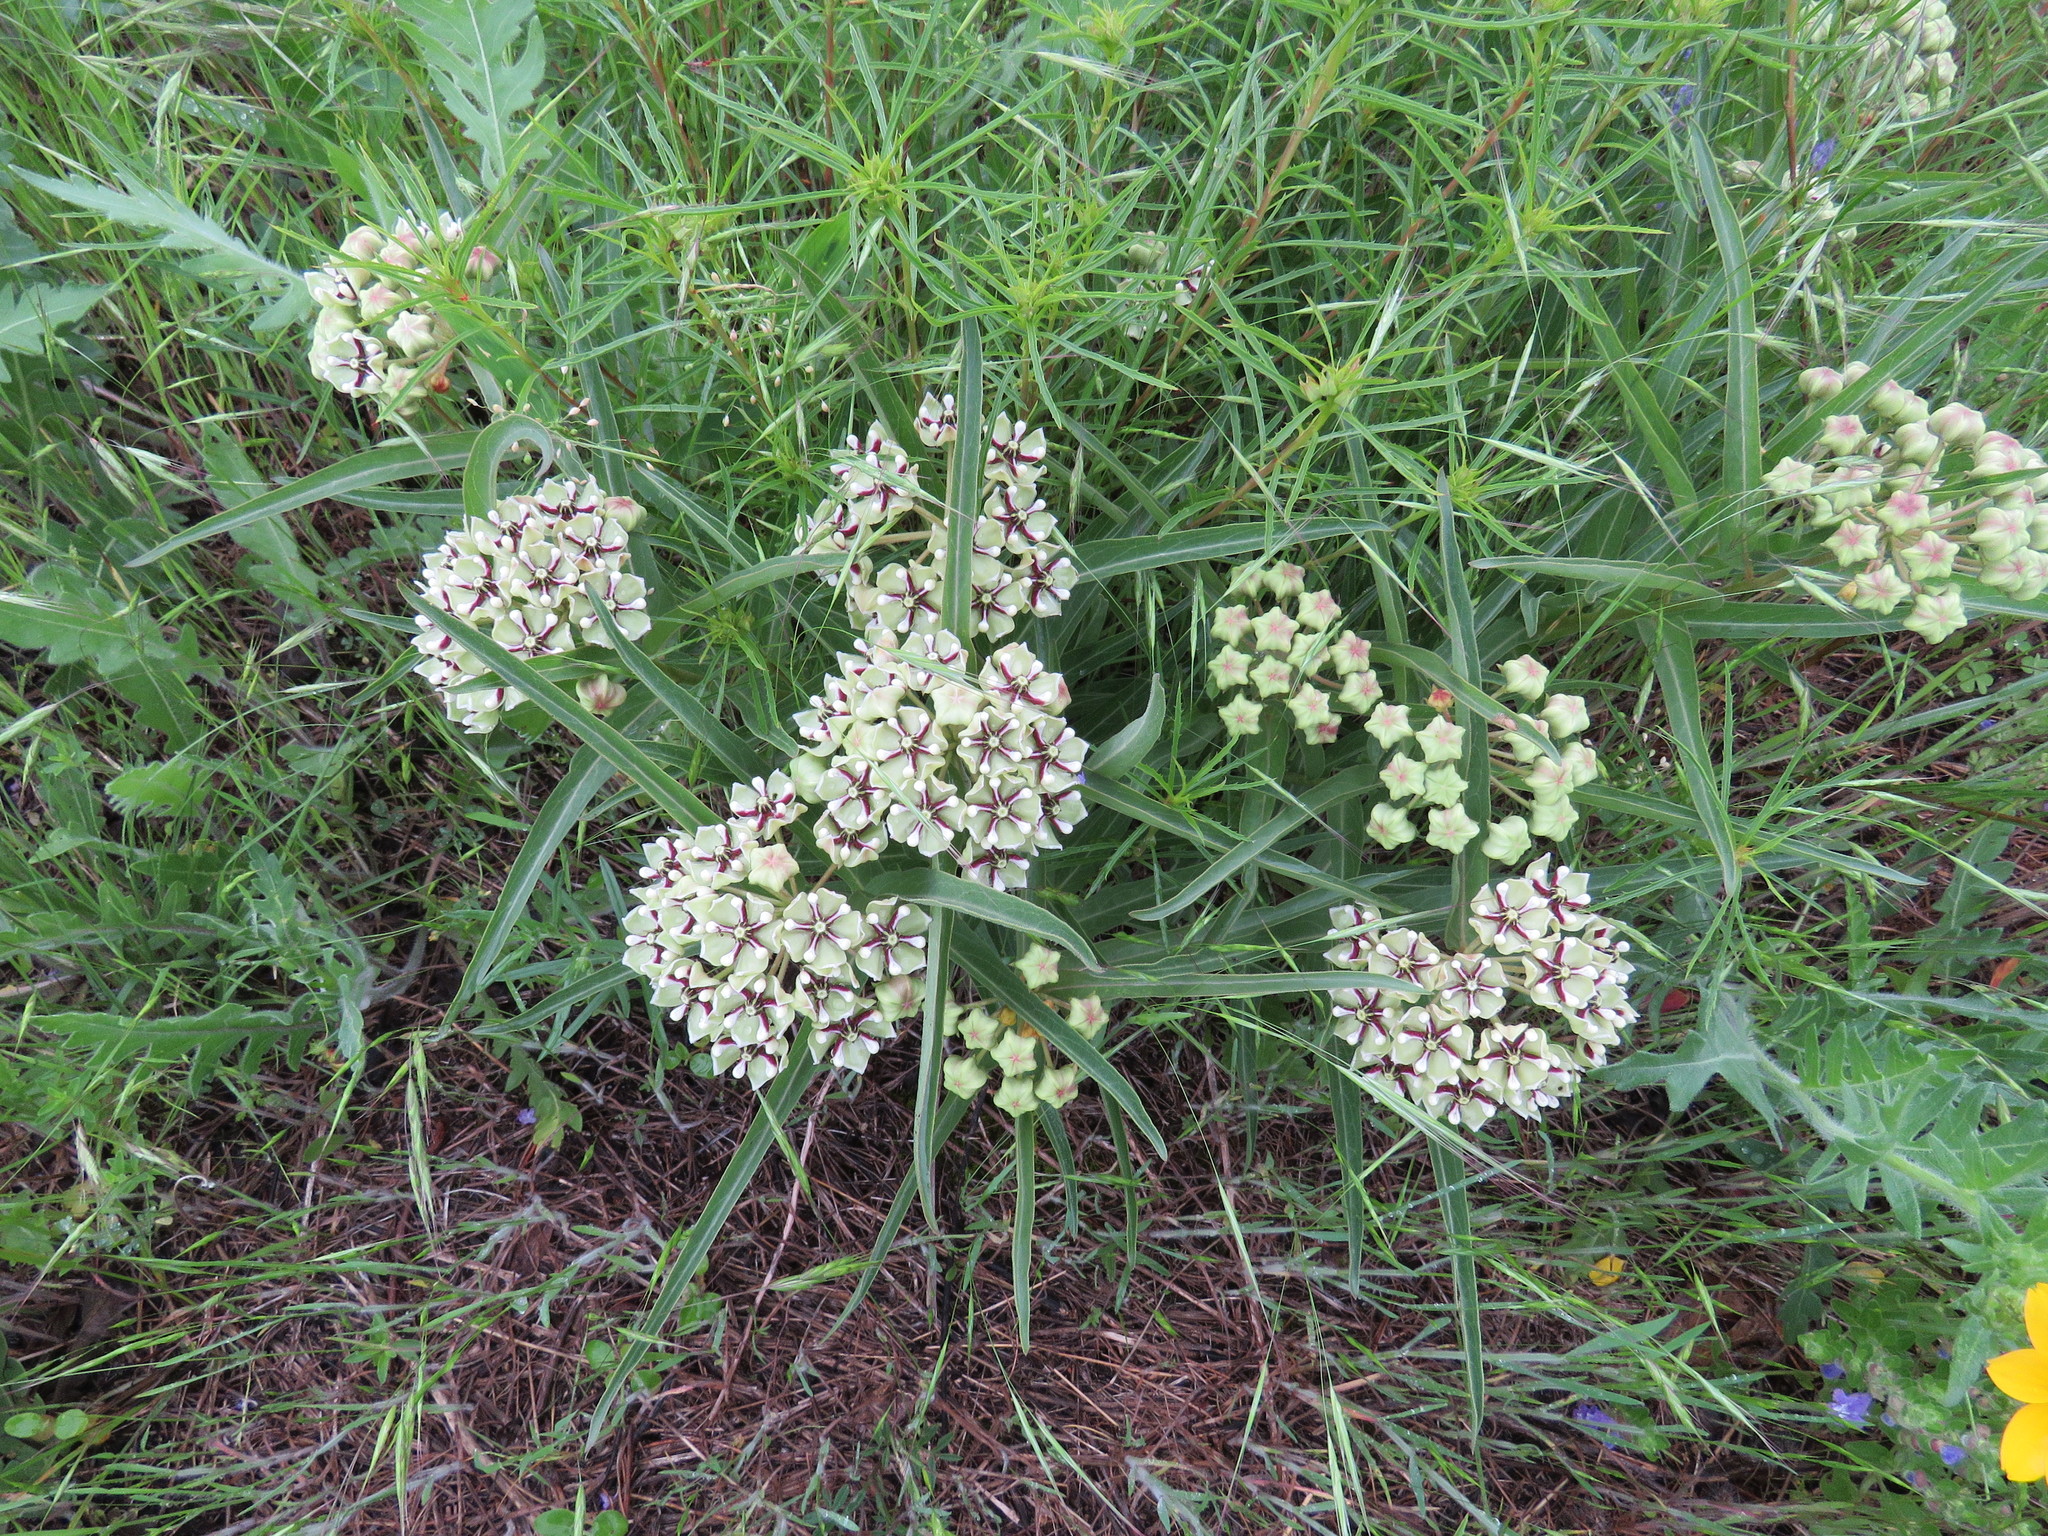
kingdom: Plantae
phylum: Tracheophyta
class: Magnoliopsida
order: Gentianales
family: Apocynaceae
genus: Asclepias
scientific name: Asclepias asperula
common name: Antelope horns
